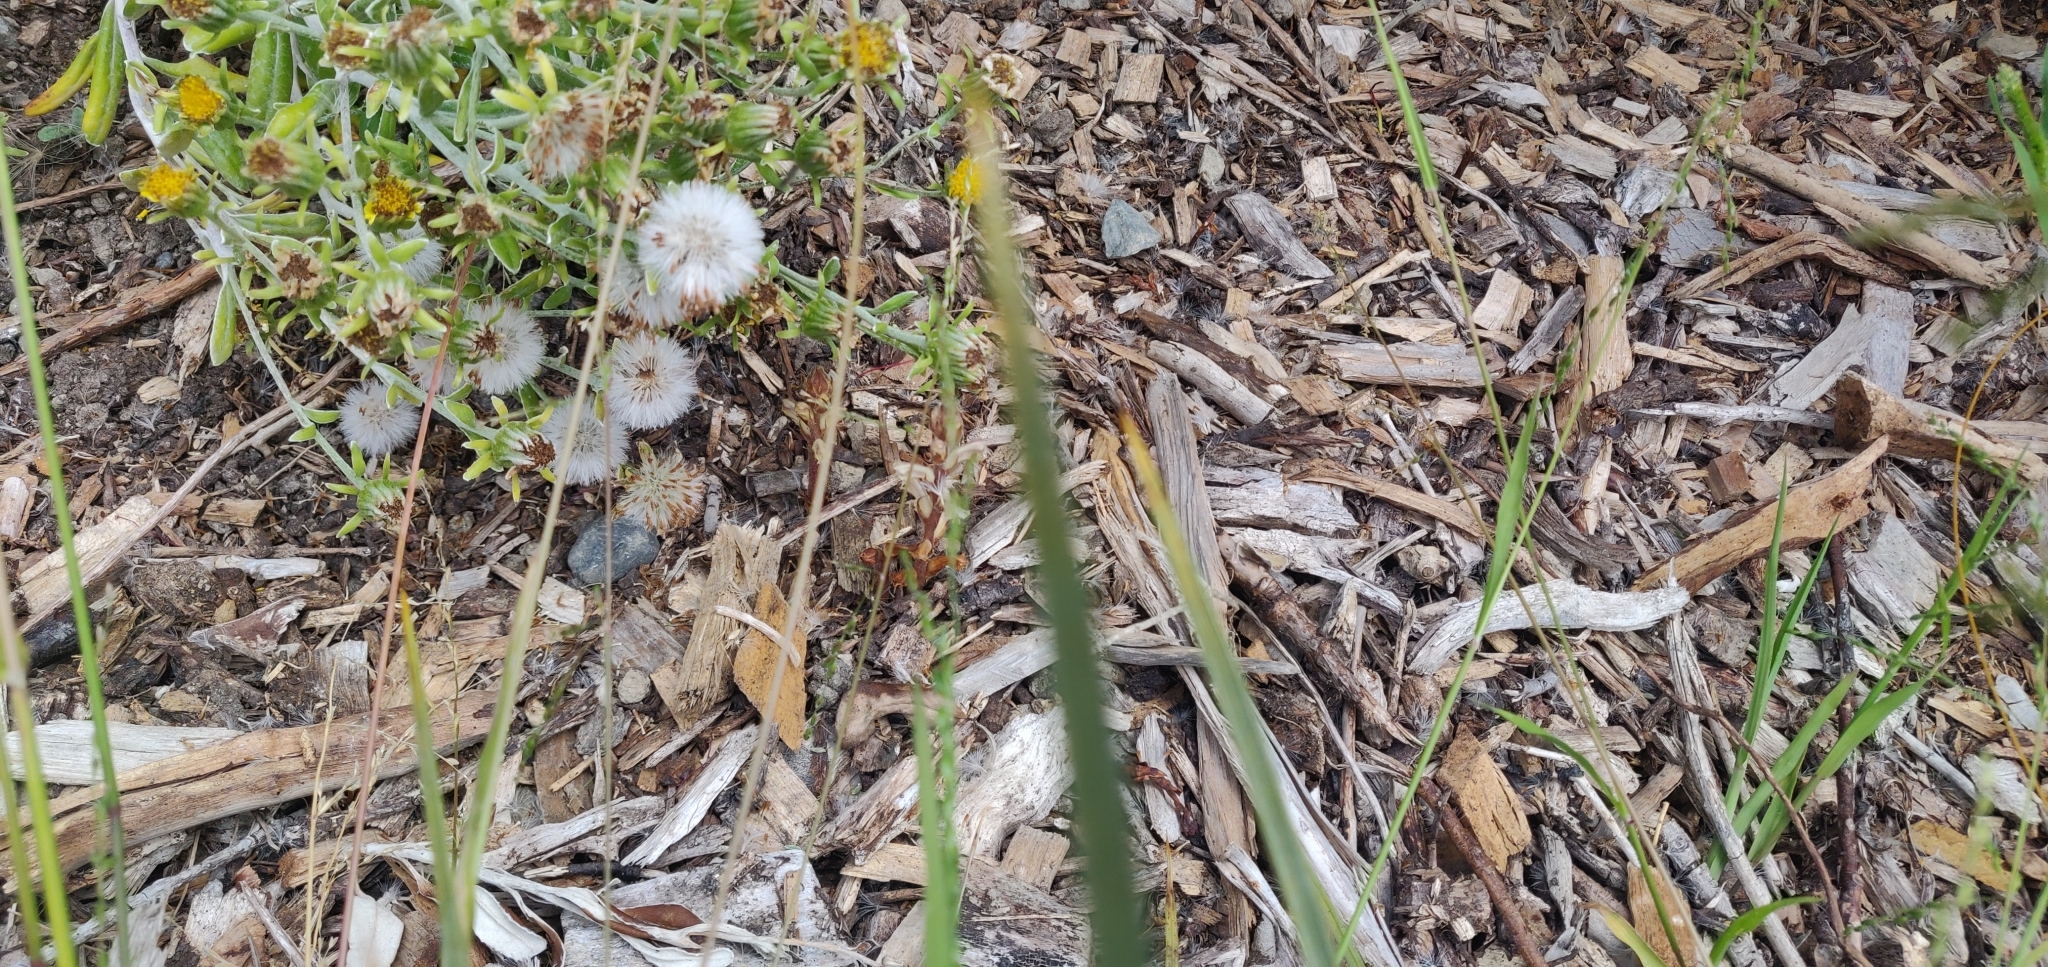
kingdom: Plantae
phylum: Tracheophyta
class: Magnoliopsida
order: Lamiales
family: Orobanchaceae
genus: Orobanche
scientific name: Orobanche minor
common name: Common broomrape
